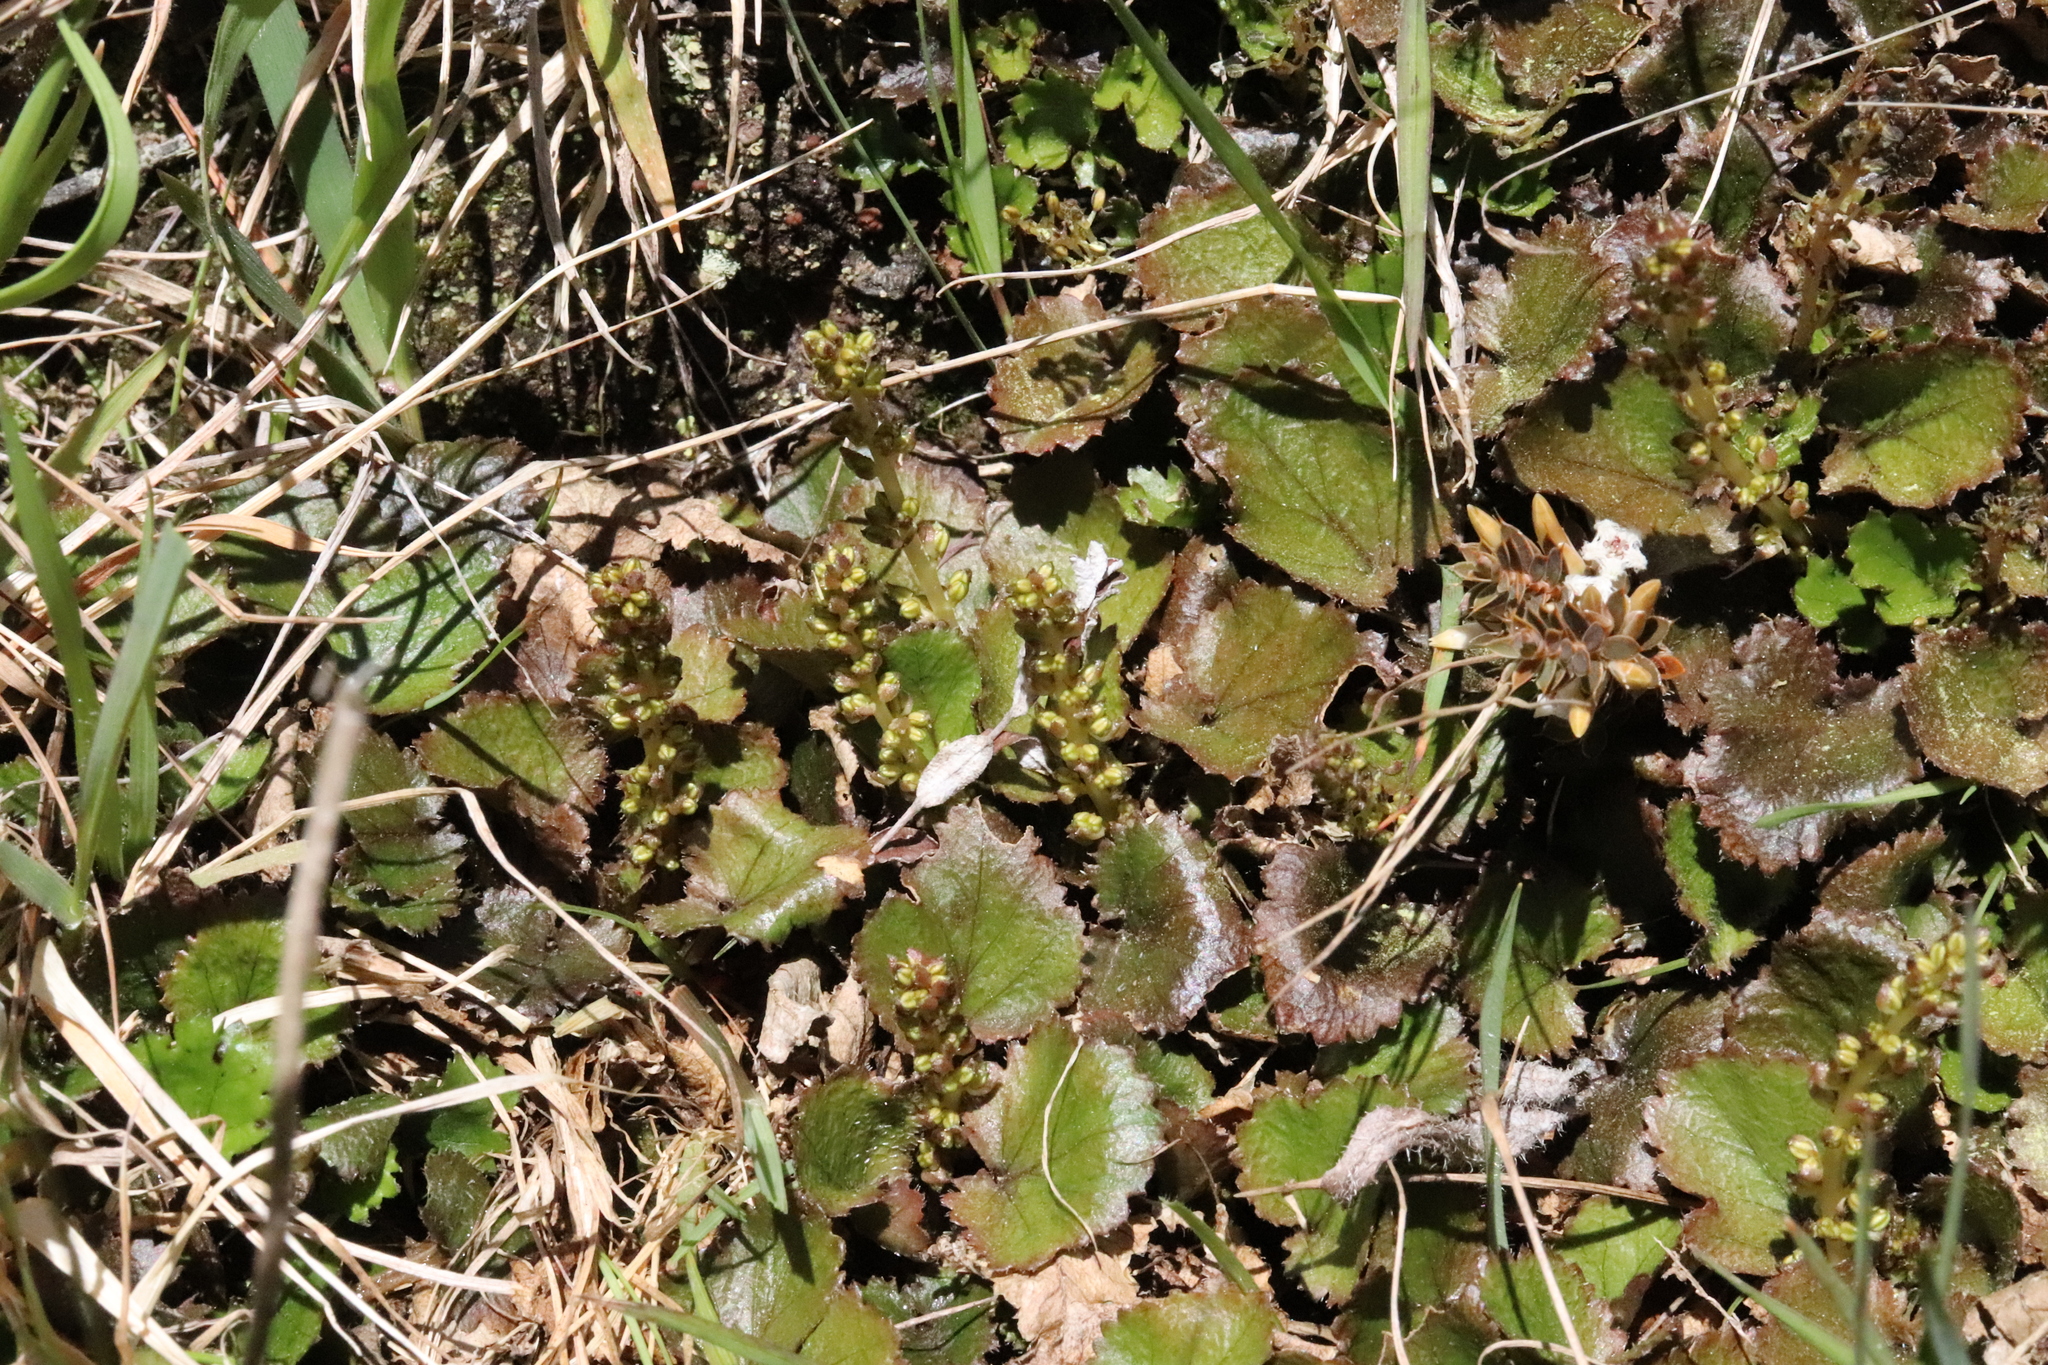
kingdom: Plantae
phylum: Tracheophyta
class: Magnoliopsida
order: Gunnerales
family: Gunneraceae
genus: Gunnera
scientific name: Gunnera monoica
